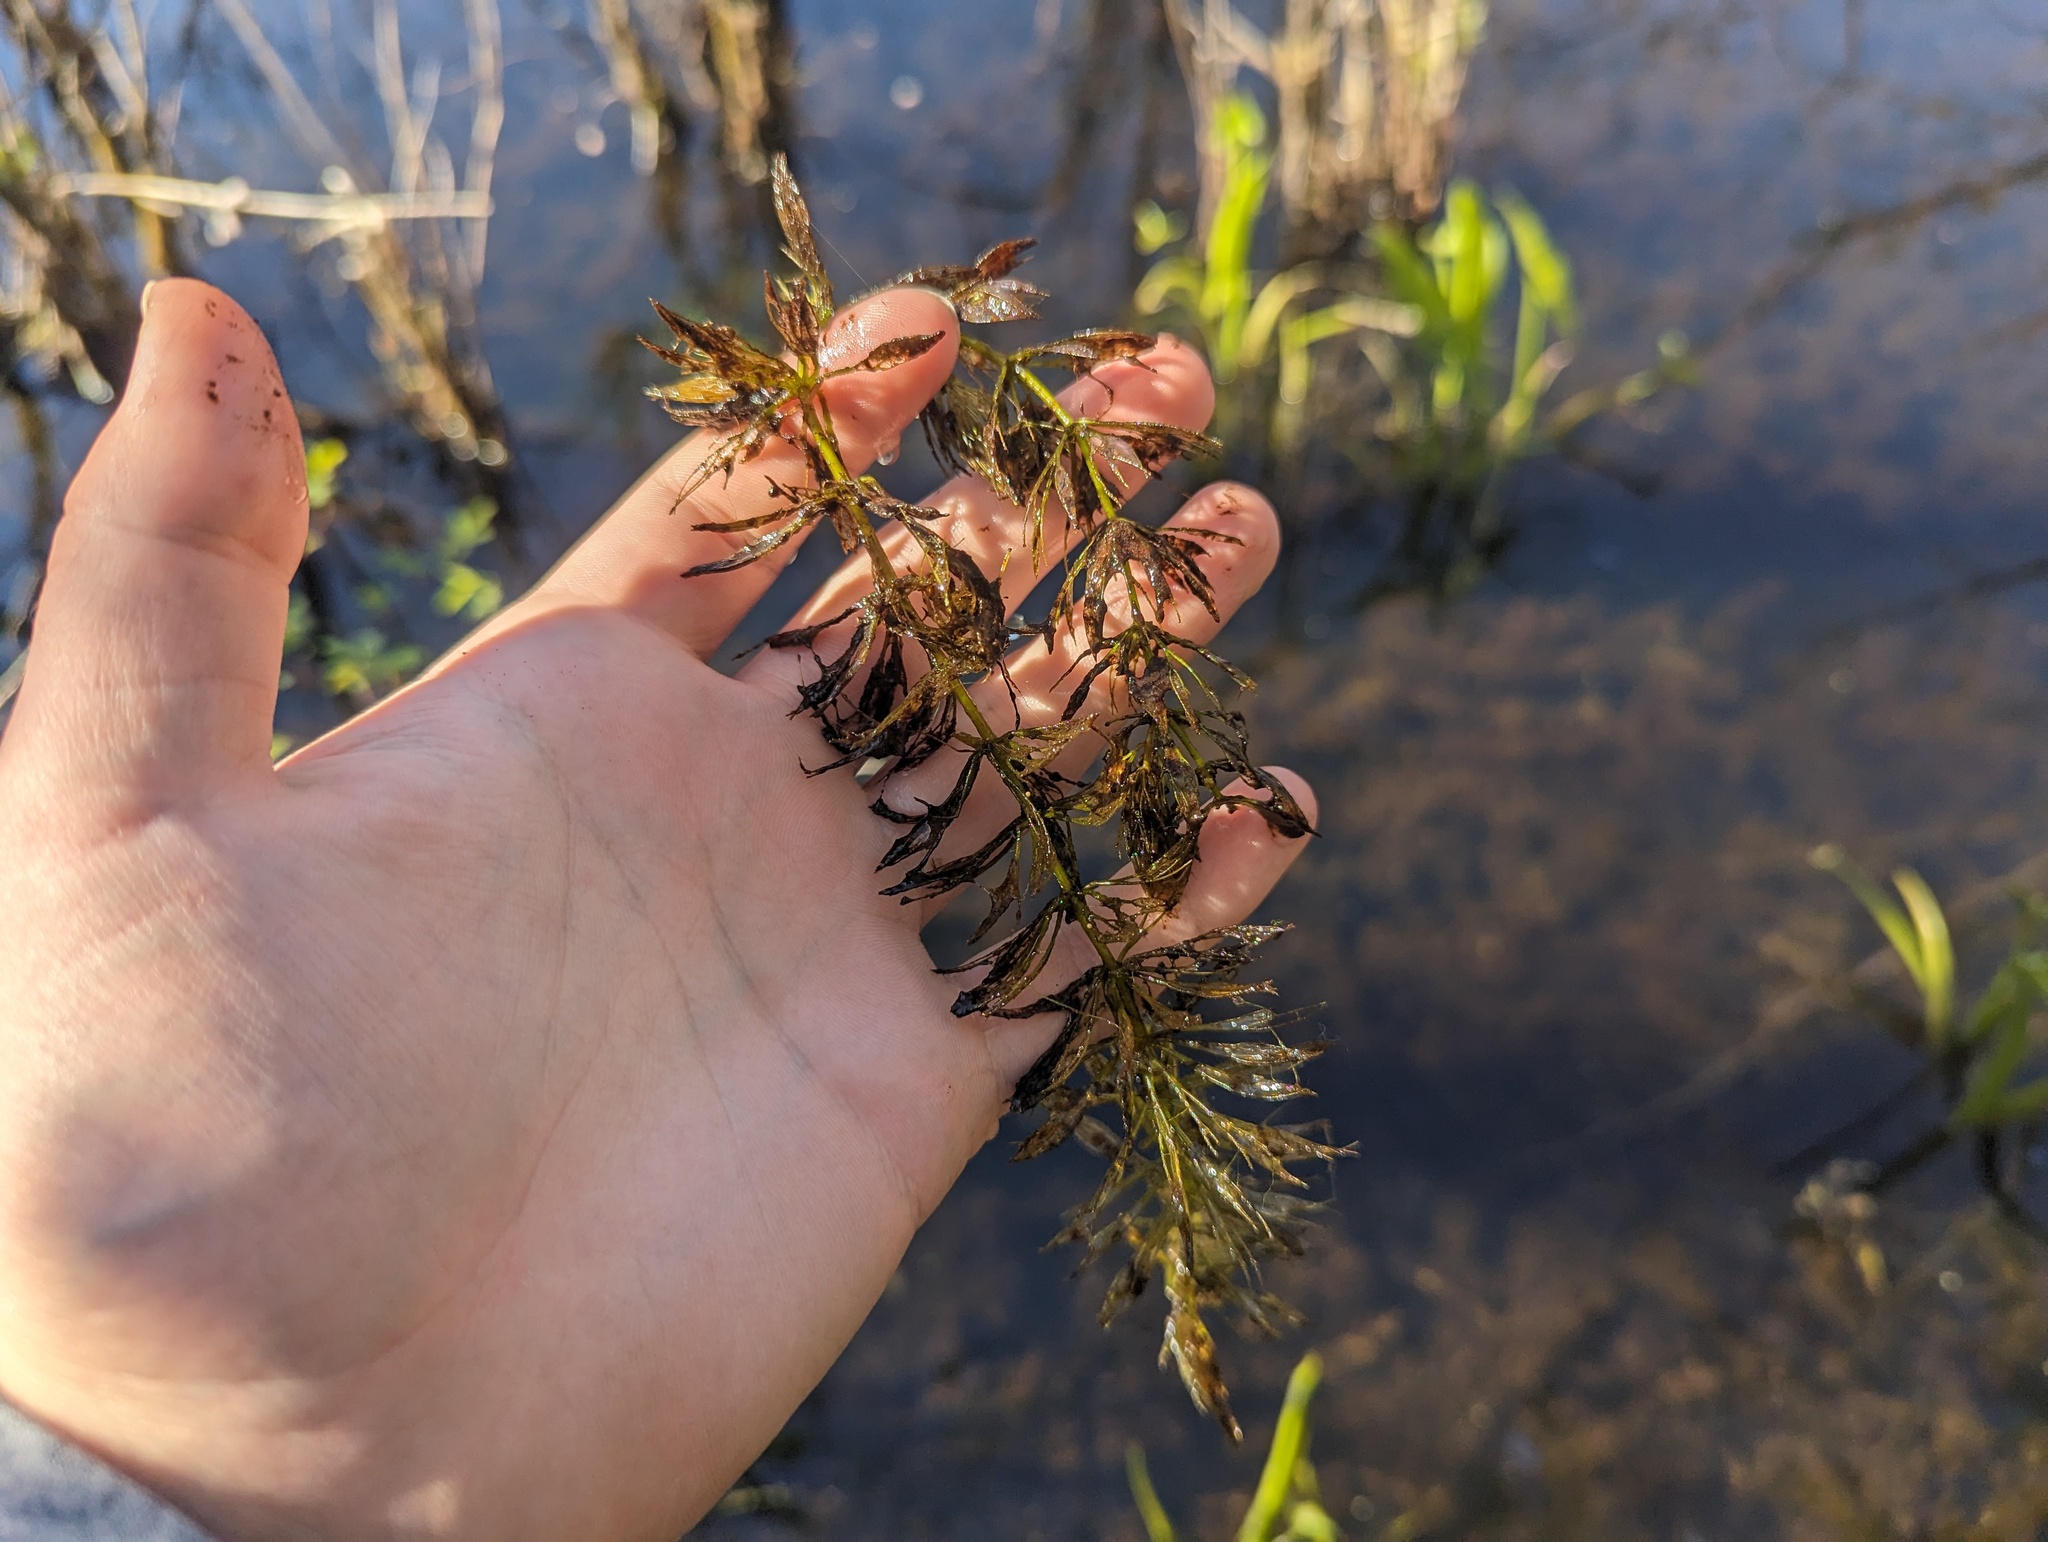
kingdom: Plantae
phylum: Tracheophyta
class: Magnoliopsida
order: Ceratophyllales
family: Ceratophyllaceae
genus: Ceratophyllum
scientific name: Ceratophyllum echinatum
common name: Prickly coontail
